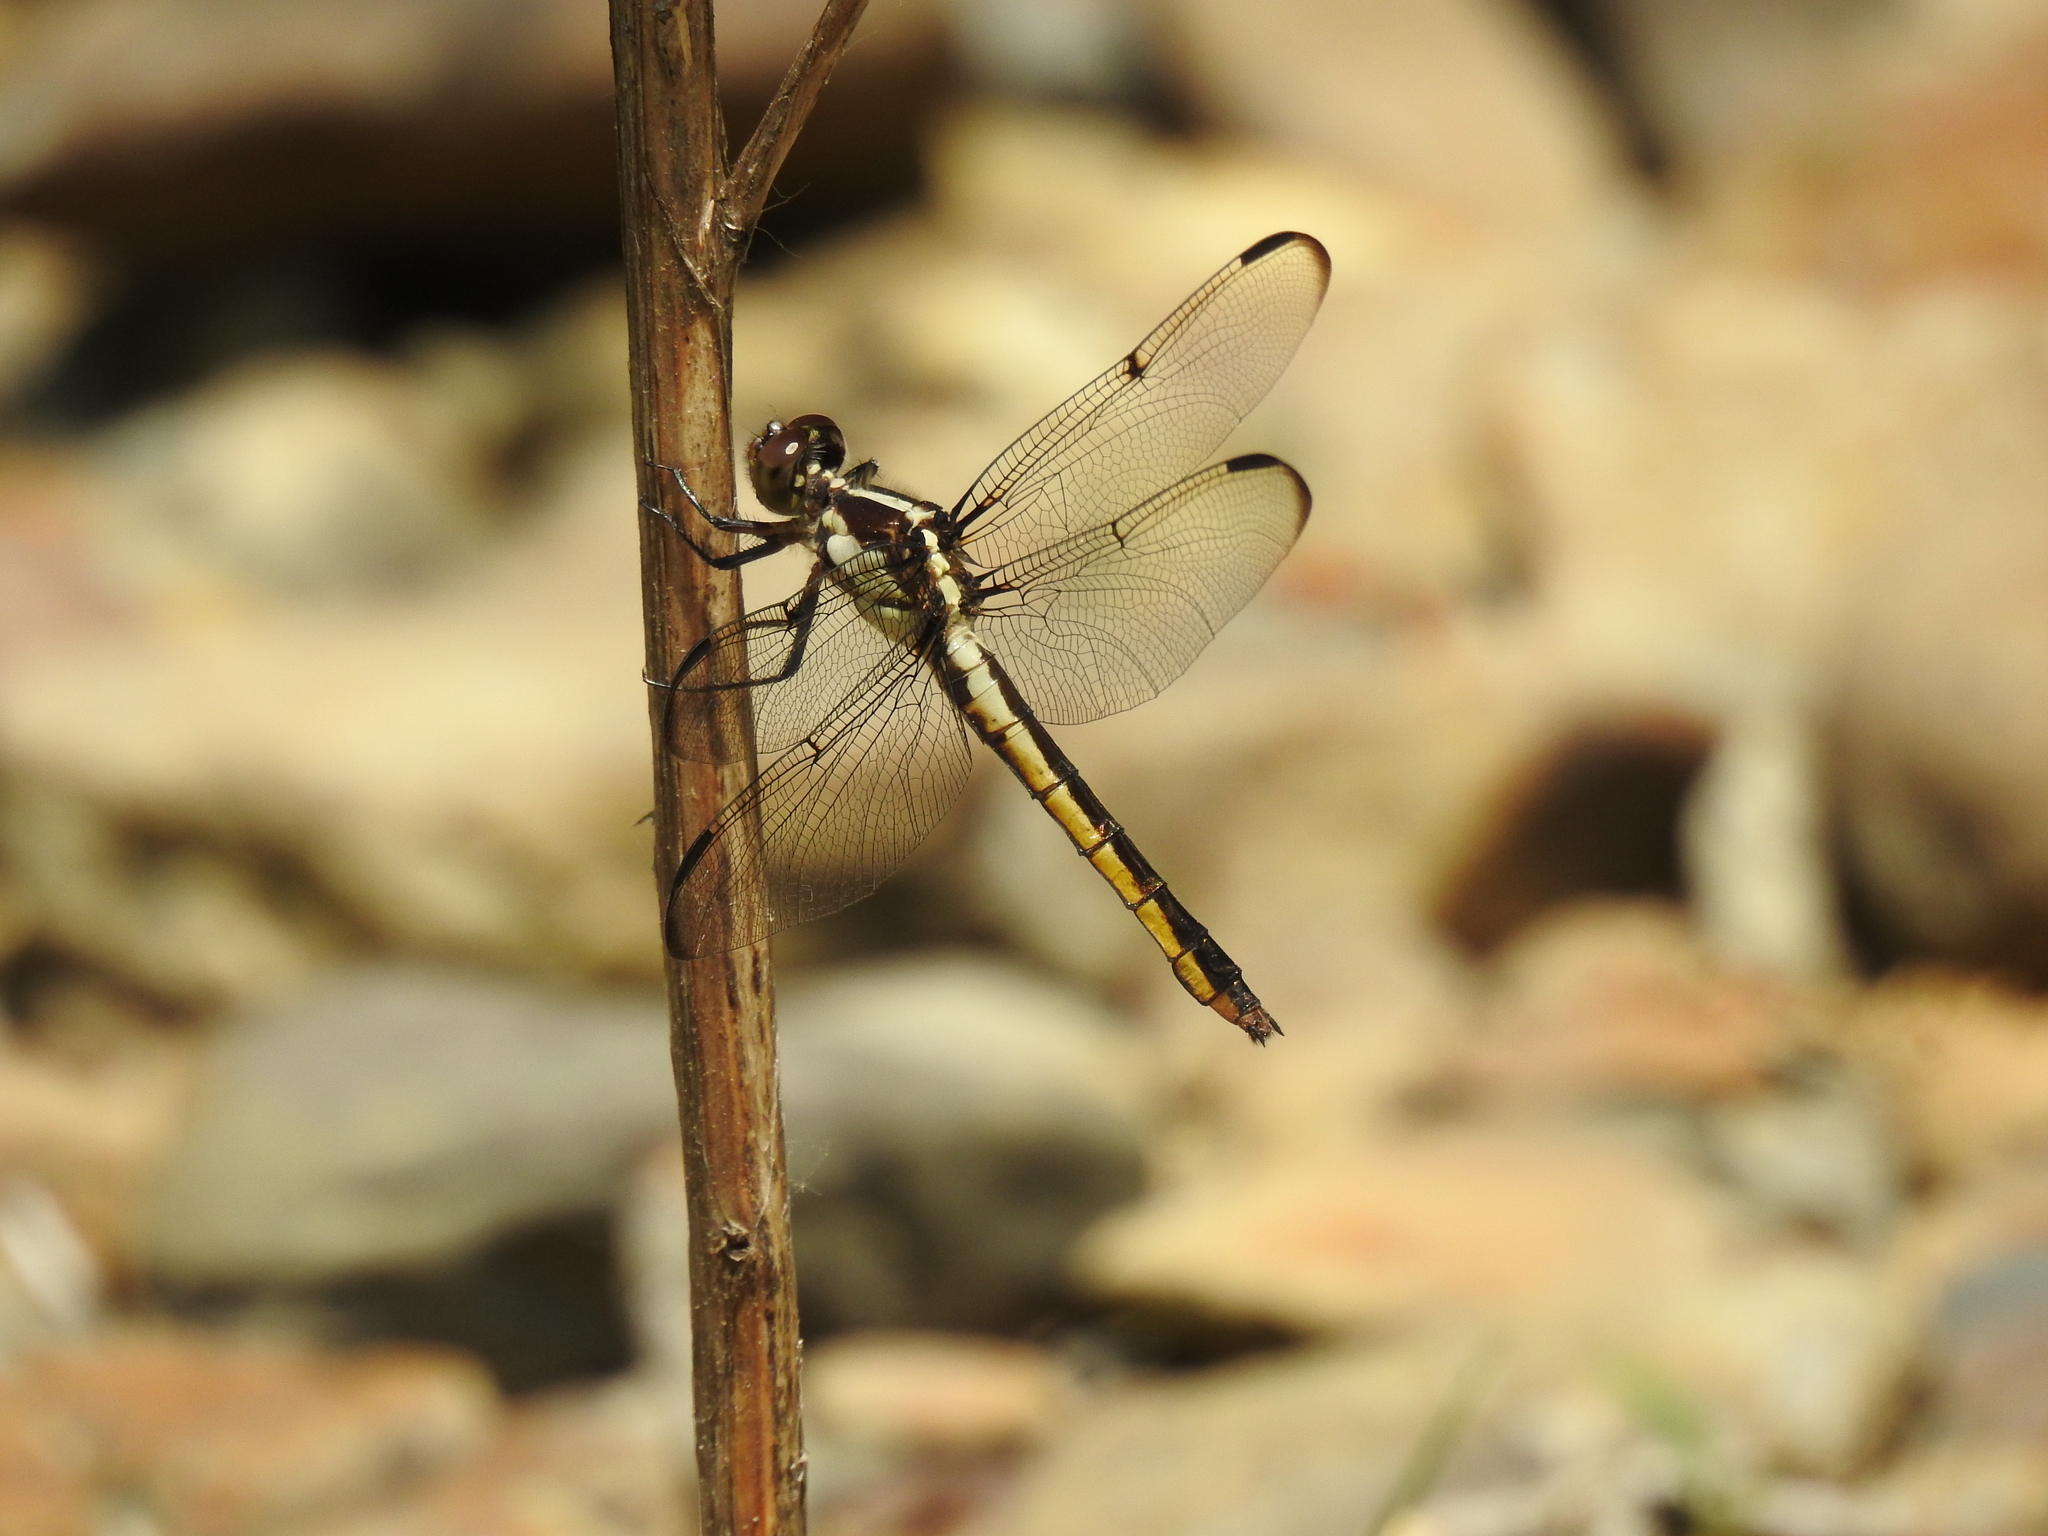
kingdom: Animalia
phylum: Arthropoda
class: Insecta
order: Odonata
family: Libellulidae
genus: Libellula
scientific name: Libellula incesta
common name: Slaty skimmer
